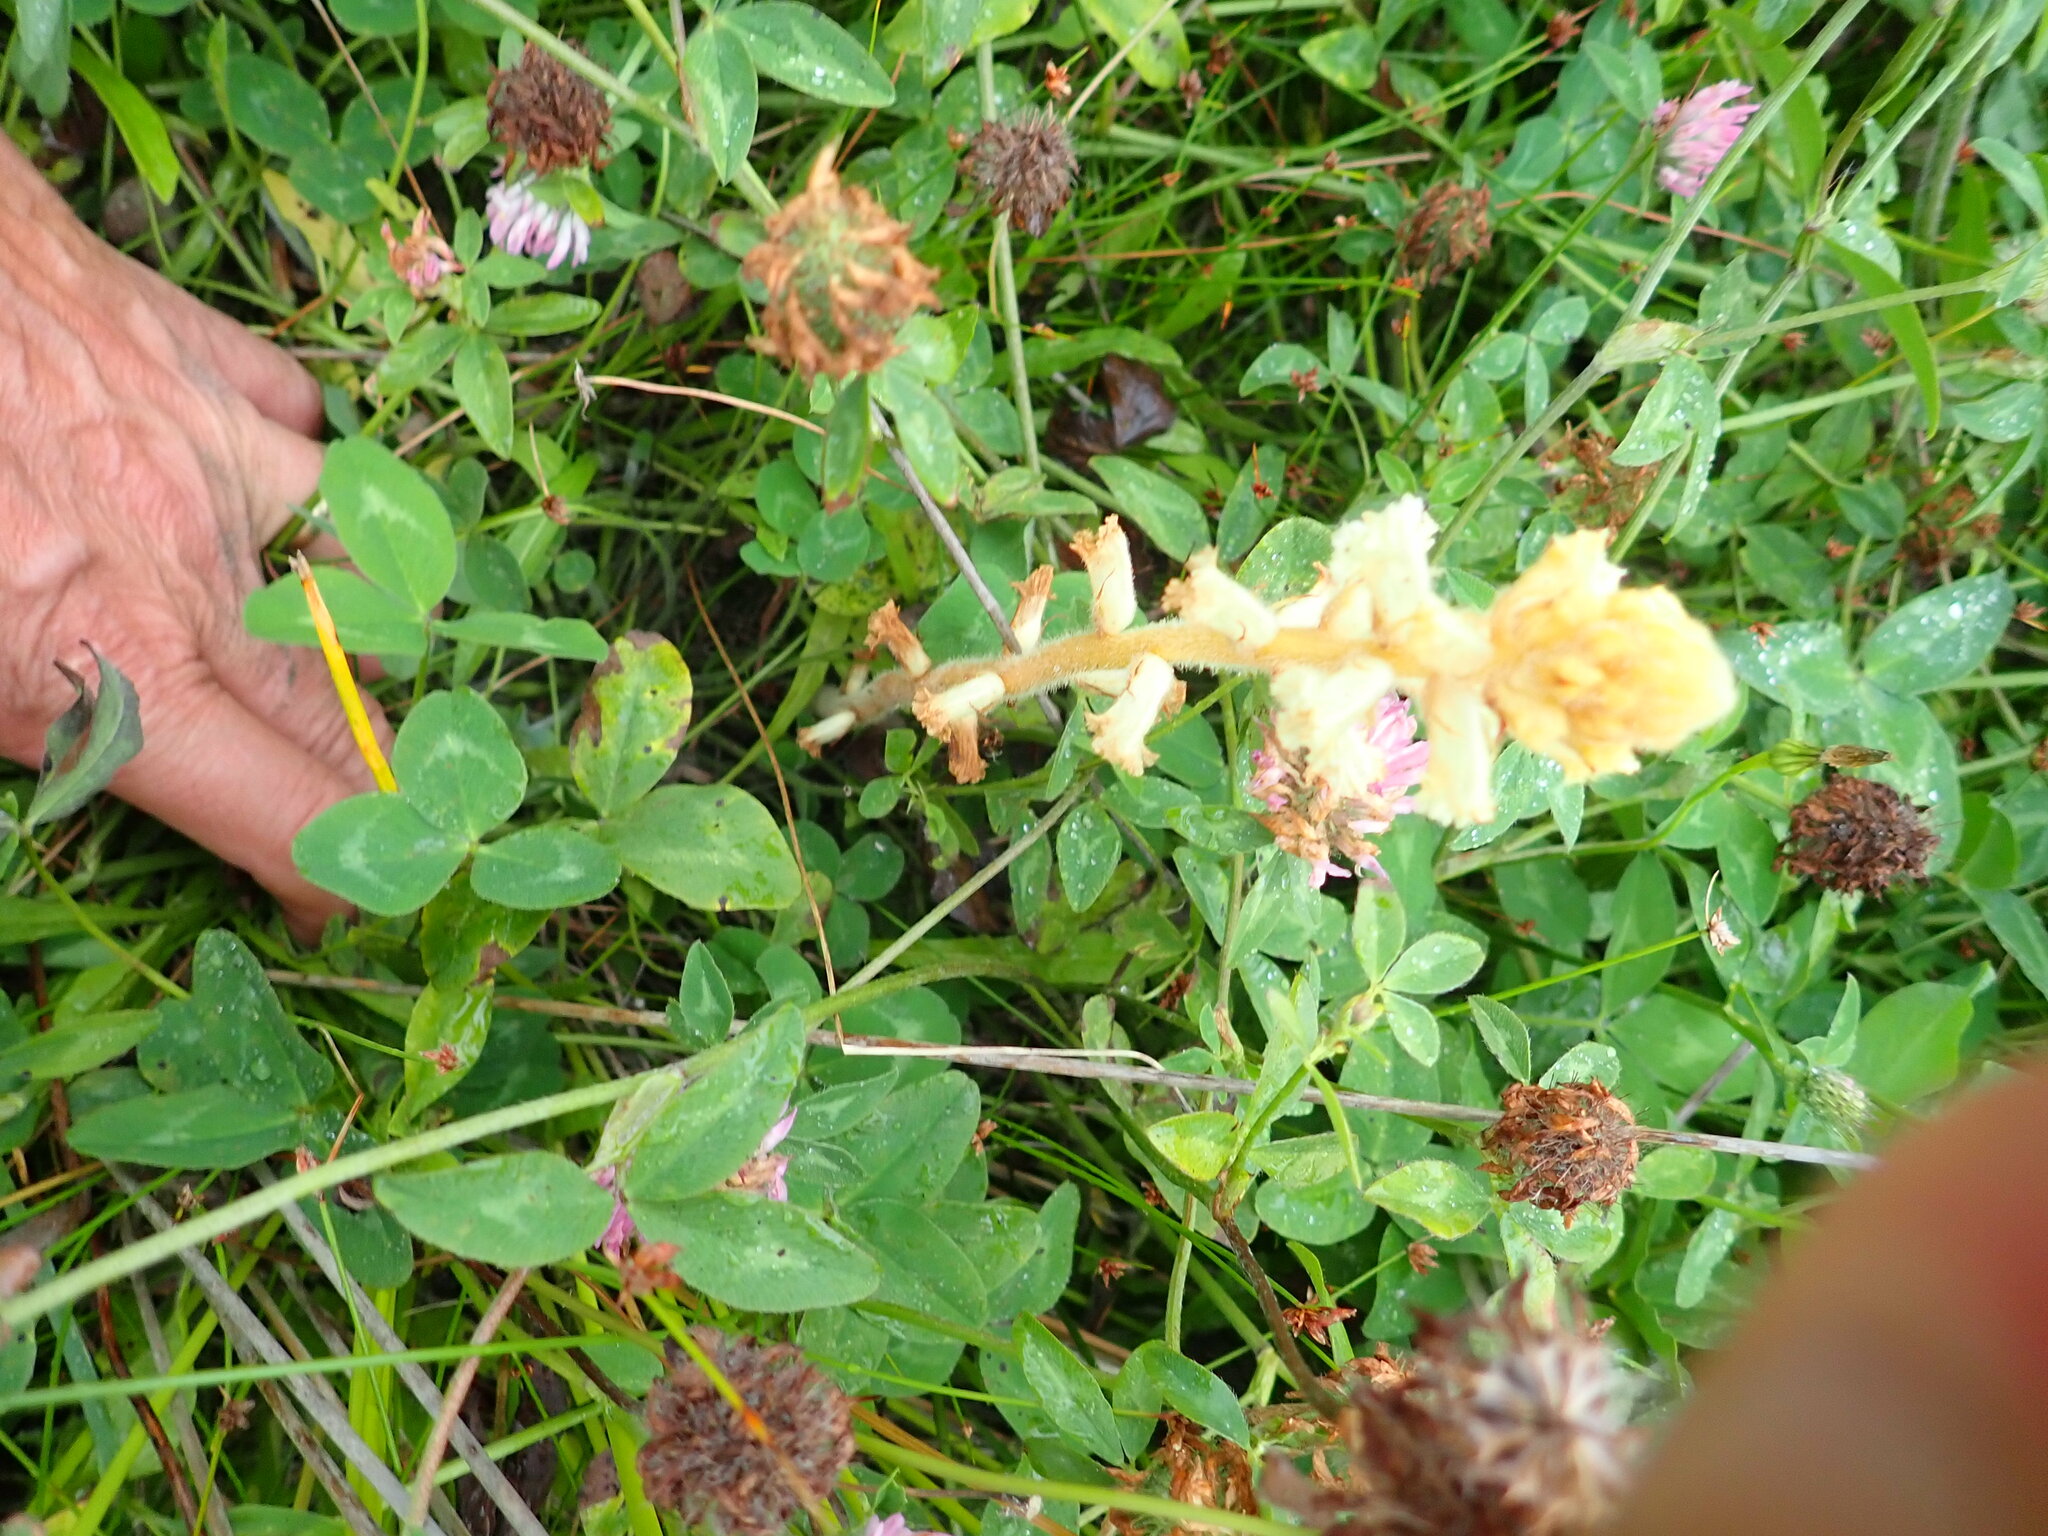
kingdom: Plantae
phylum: Tracheophyta
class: Magnoliopsida
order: Lamiales
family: Orobanchaceae
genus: Orobanche
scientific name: Orobanche minor
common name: Common broomrape
